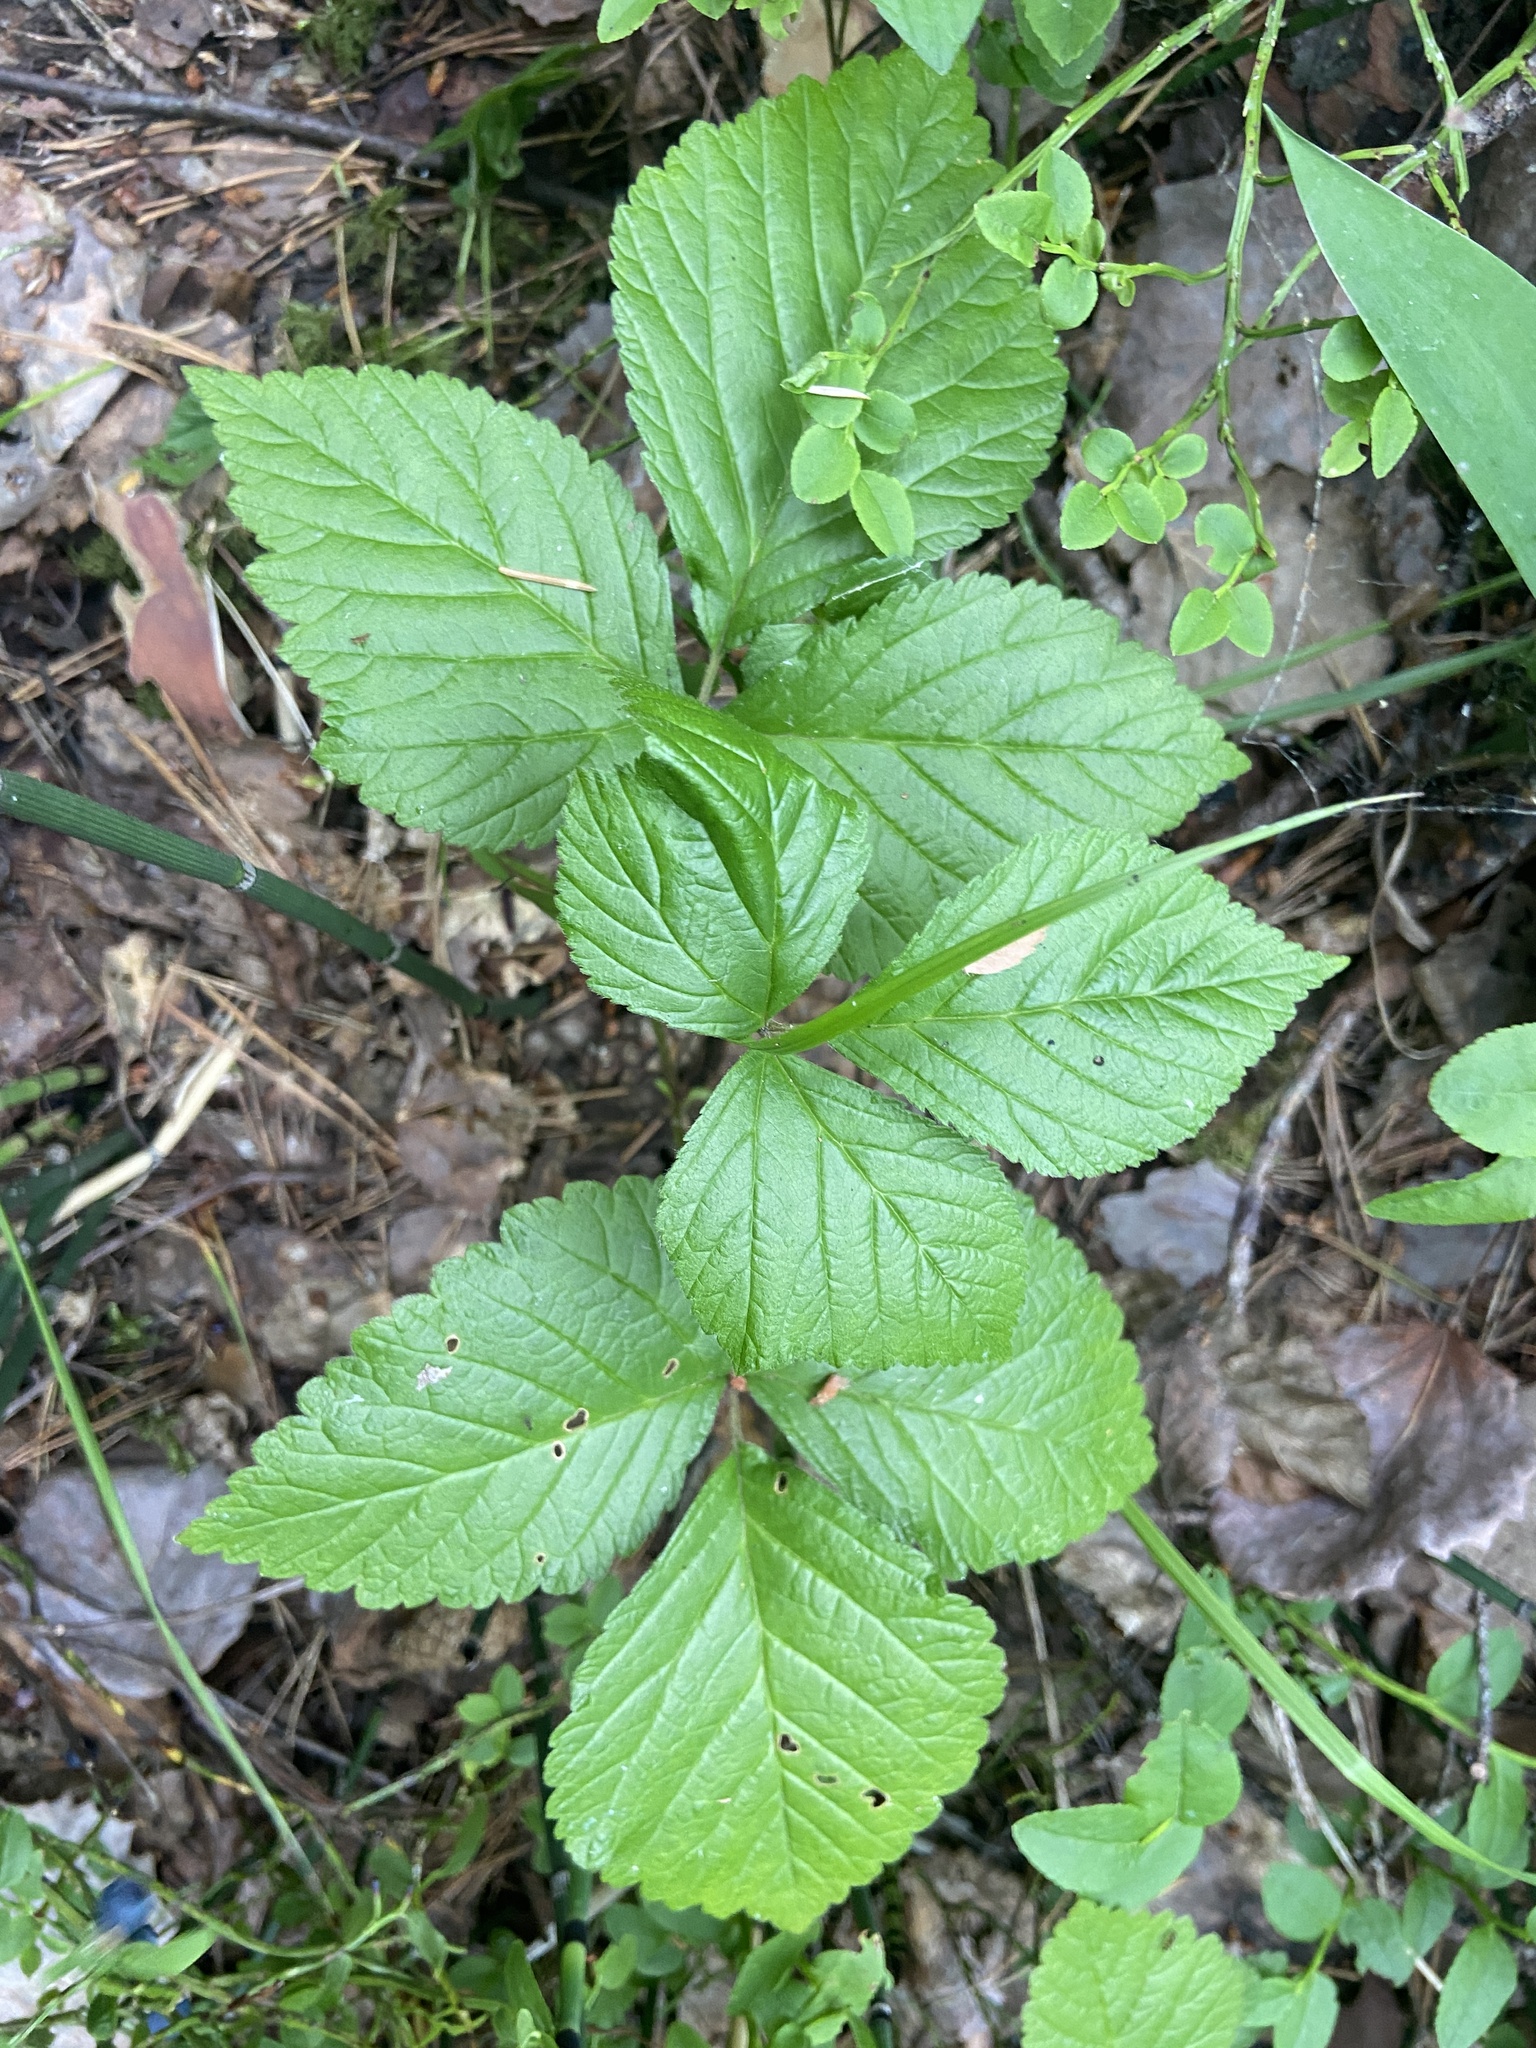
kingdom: Plantae
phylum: Tracheophyta
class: Magnoliopsida
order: Rosales
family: Rosaceae
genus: Rubus
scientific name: Rubus saxatilis
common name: Stone bramble
